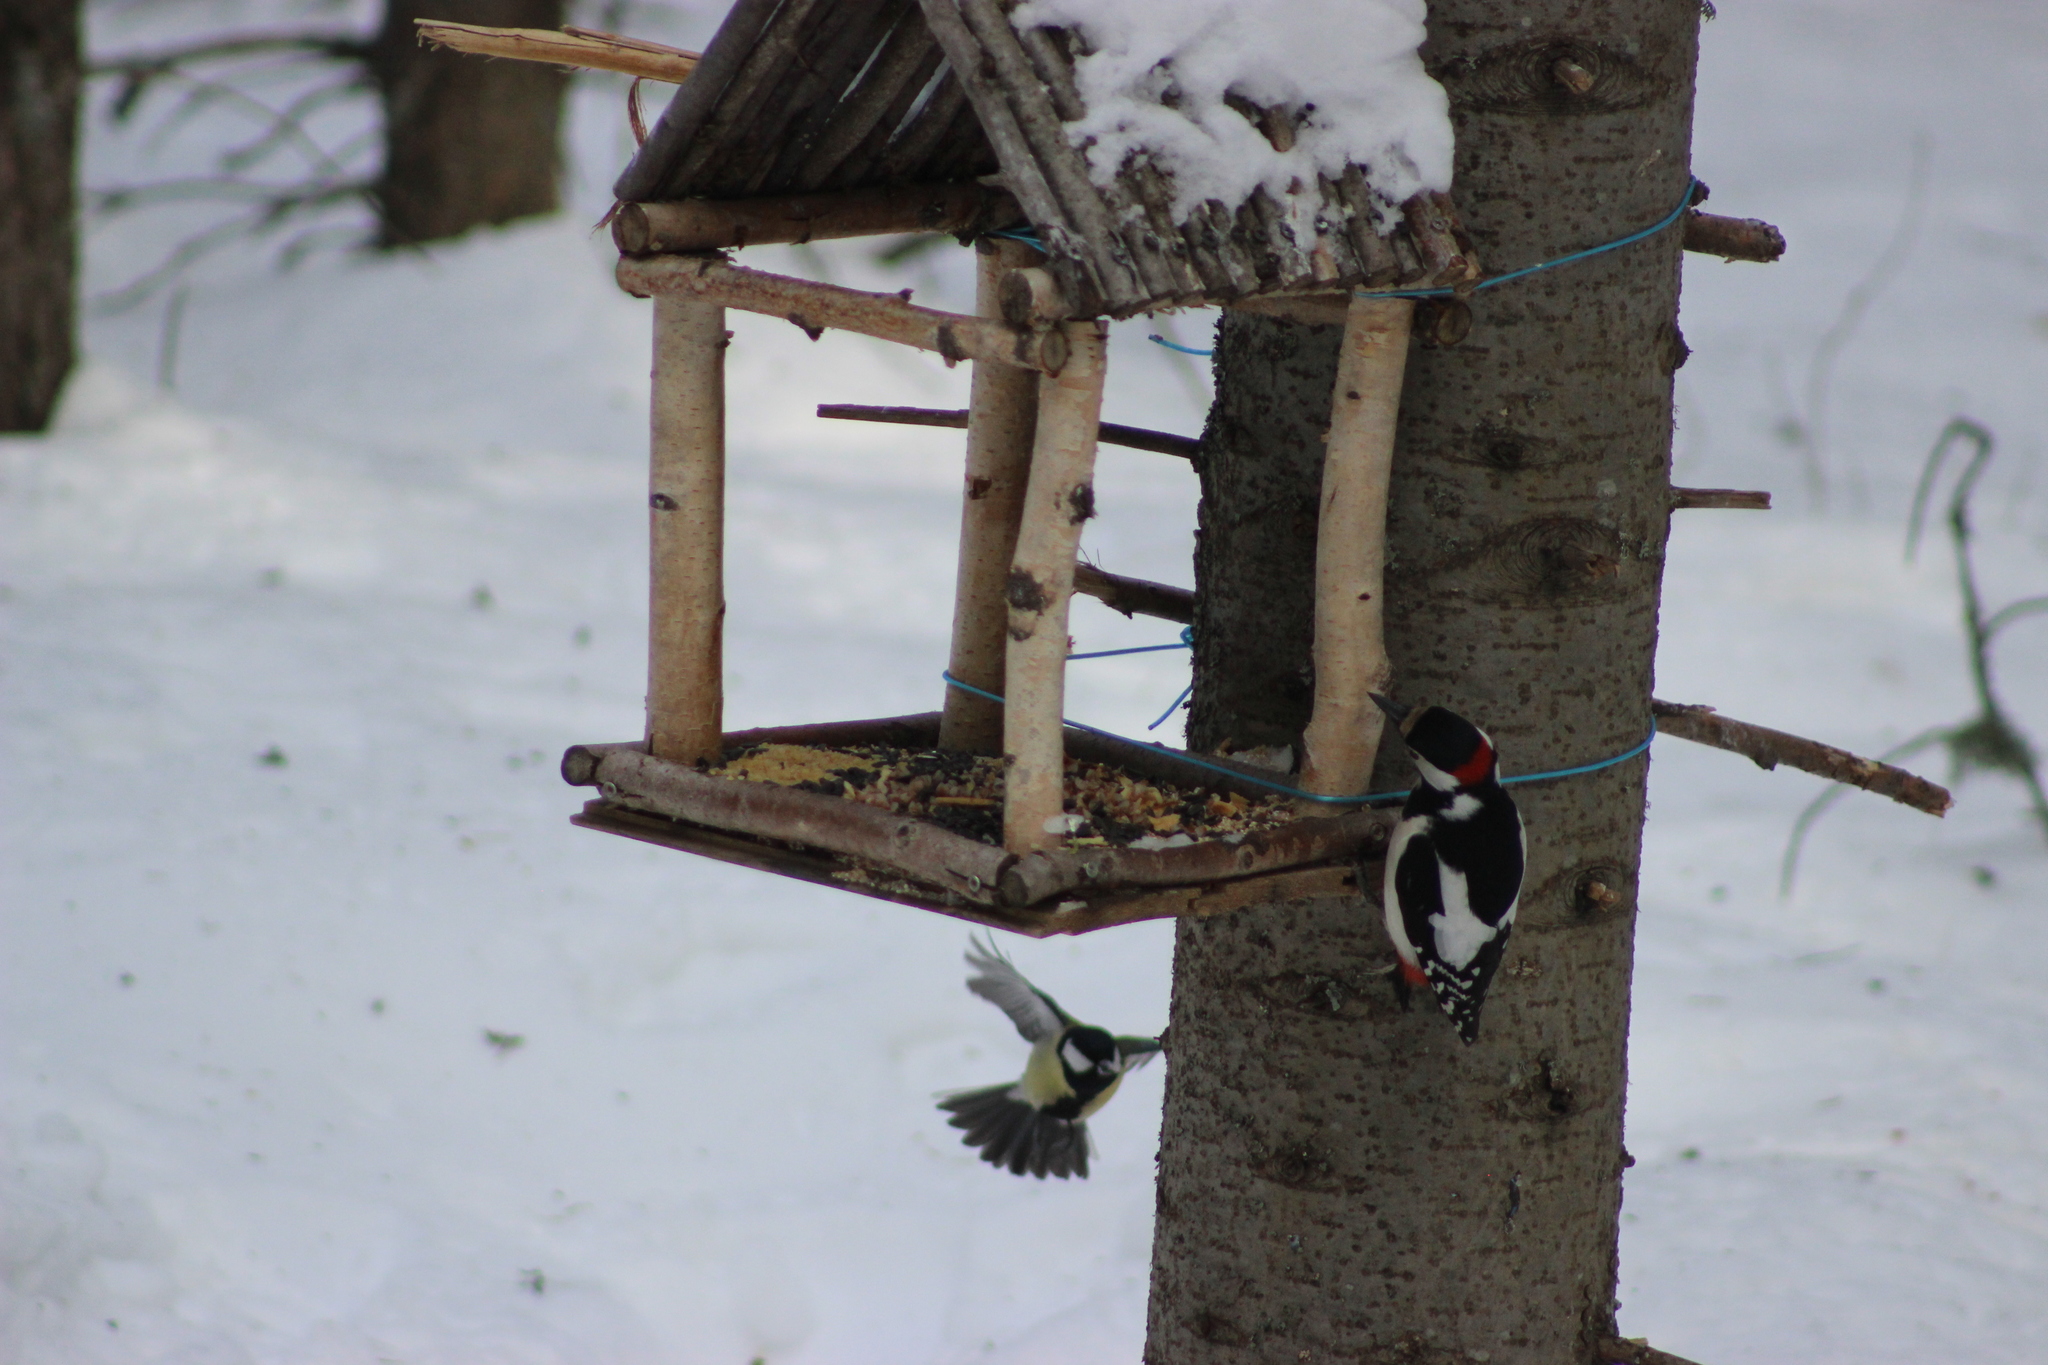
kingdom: Animalia
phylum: Chordata
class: Aves
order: Piciformes
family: Picidae
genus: Dendrocopos
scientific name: Dendrocopos major
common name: Great spotted woodpecker
